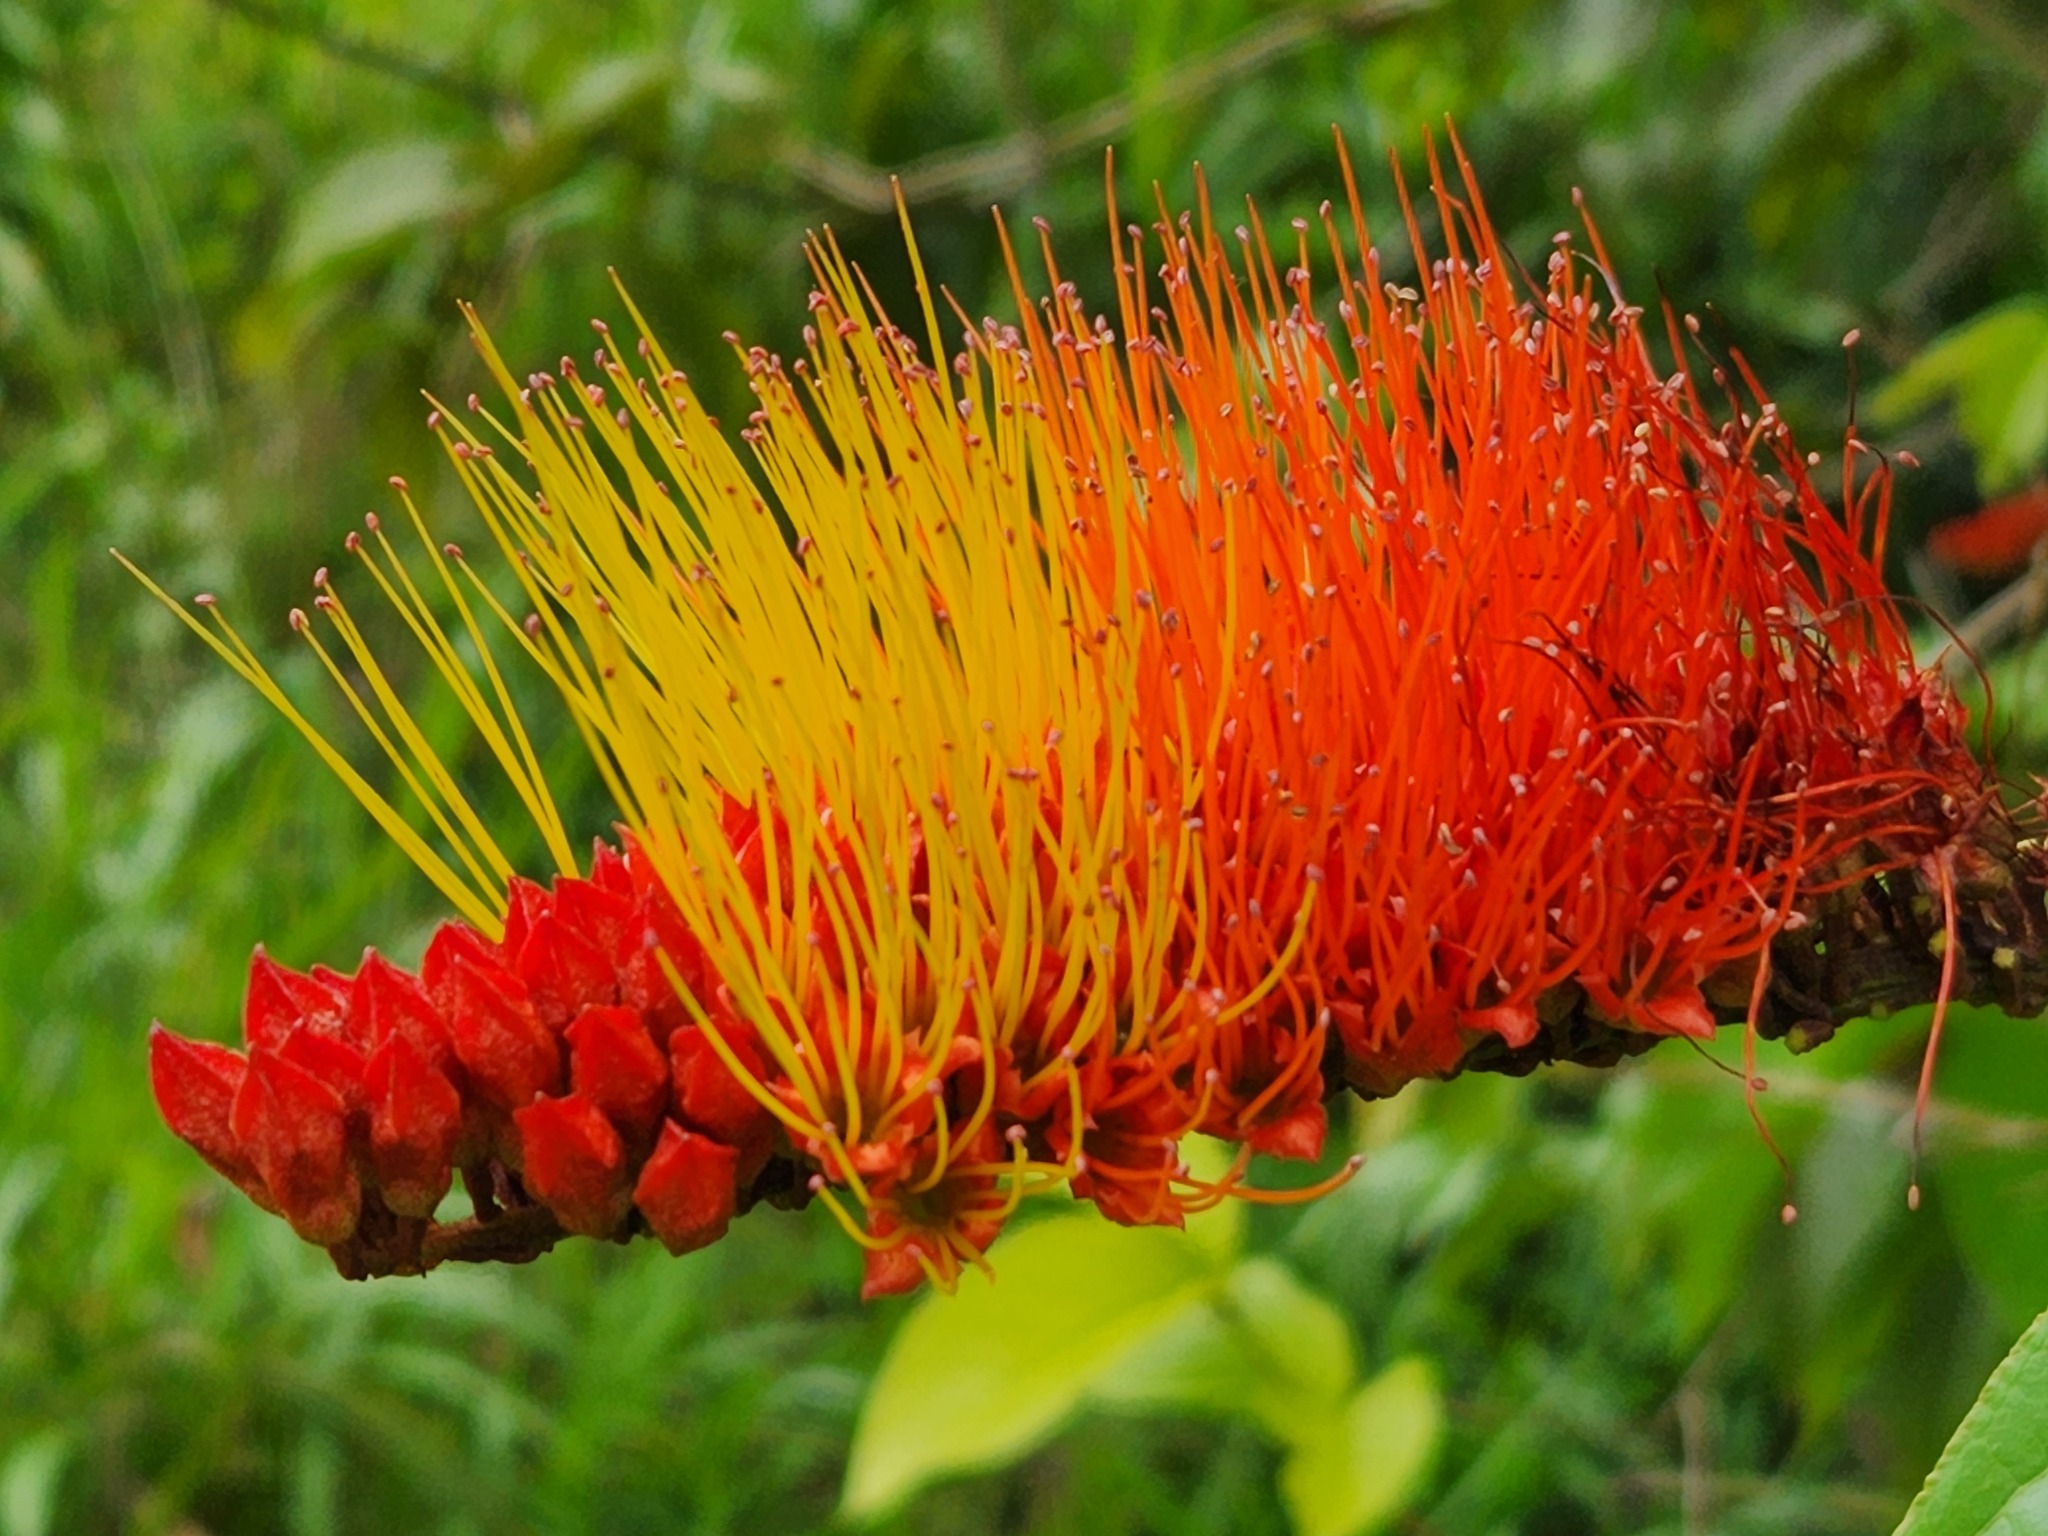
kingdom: Plantae
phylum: Tracheophyta
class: Magnoliopsida
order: Myrtales
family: Combretaceae
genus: Combretum
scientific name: Combretum fruticosum
